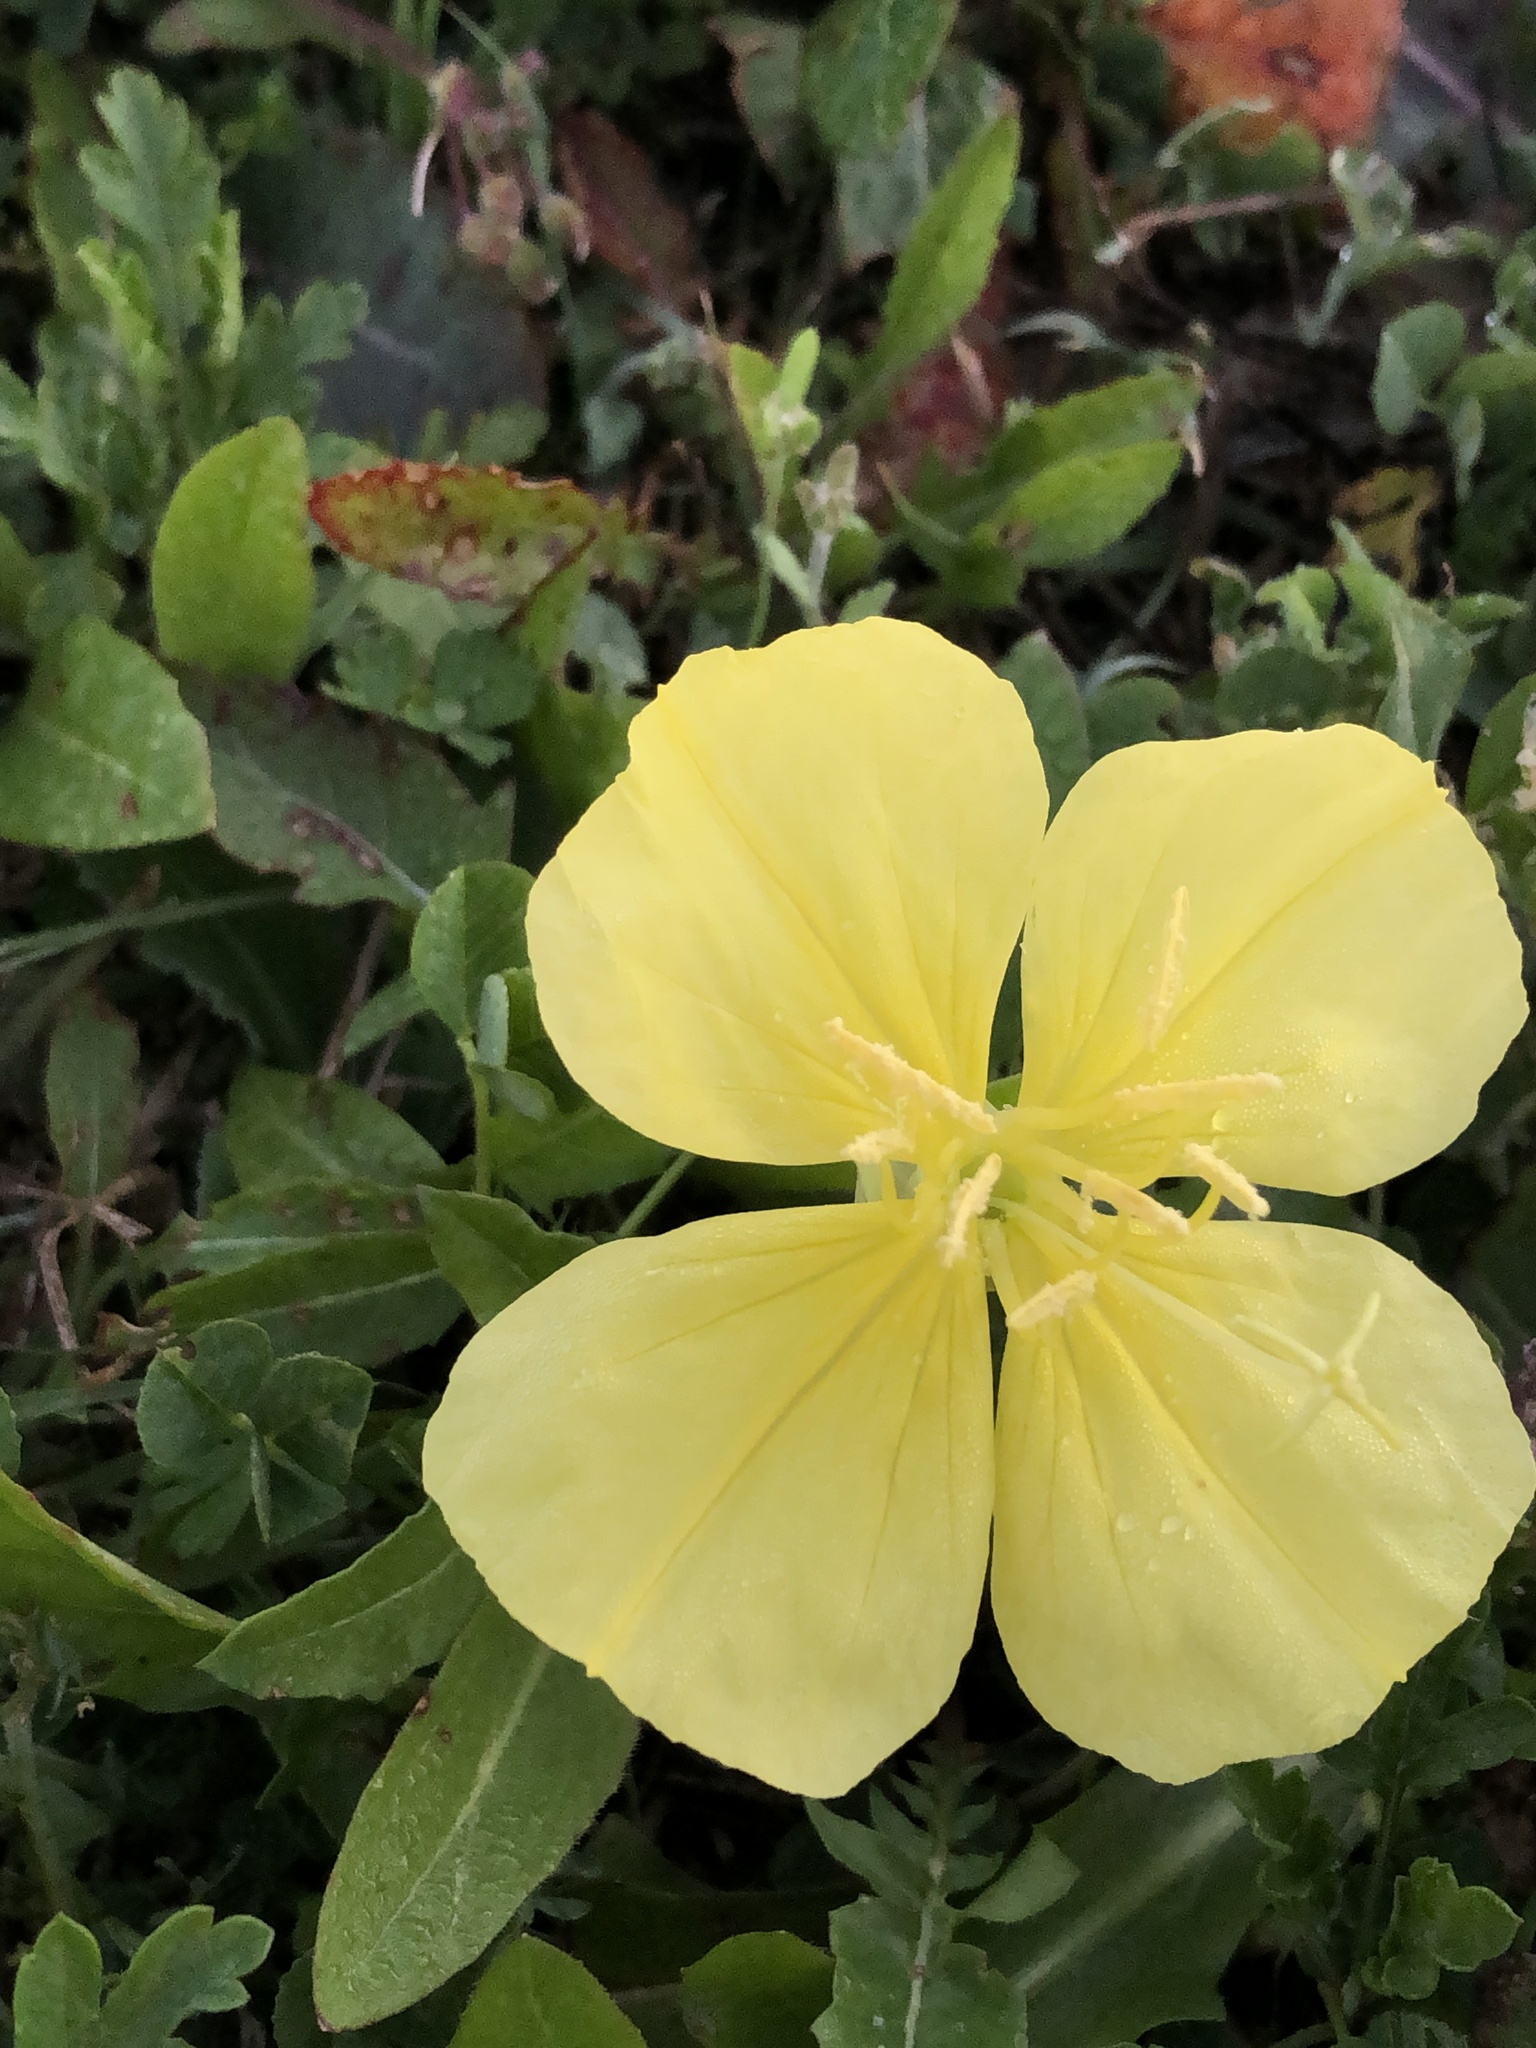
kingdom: Plantae
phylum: Tracheophyta
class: Magnoliopsida
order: Myrtales
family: Onagraceae
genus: Oenothera
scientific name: Oenothera triloba
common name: Sessile evening-primrose
